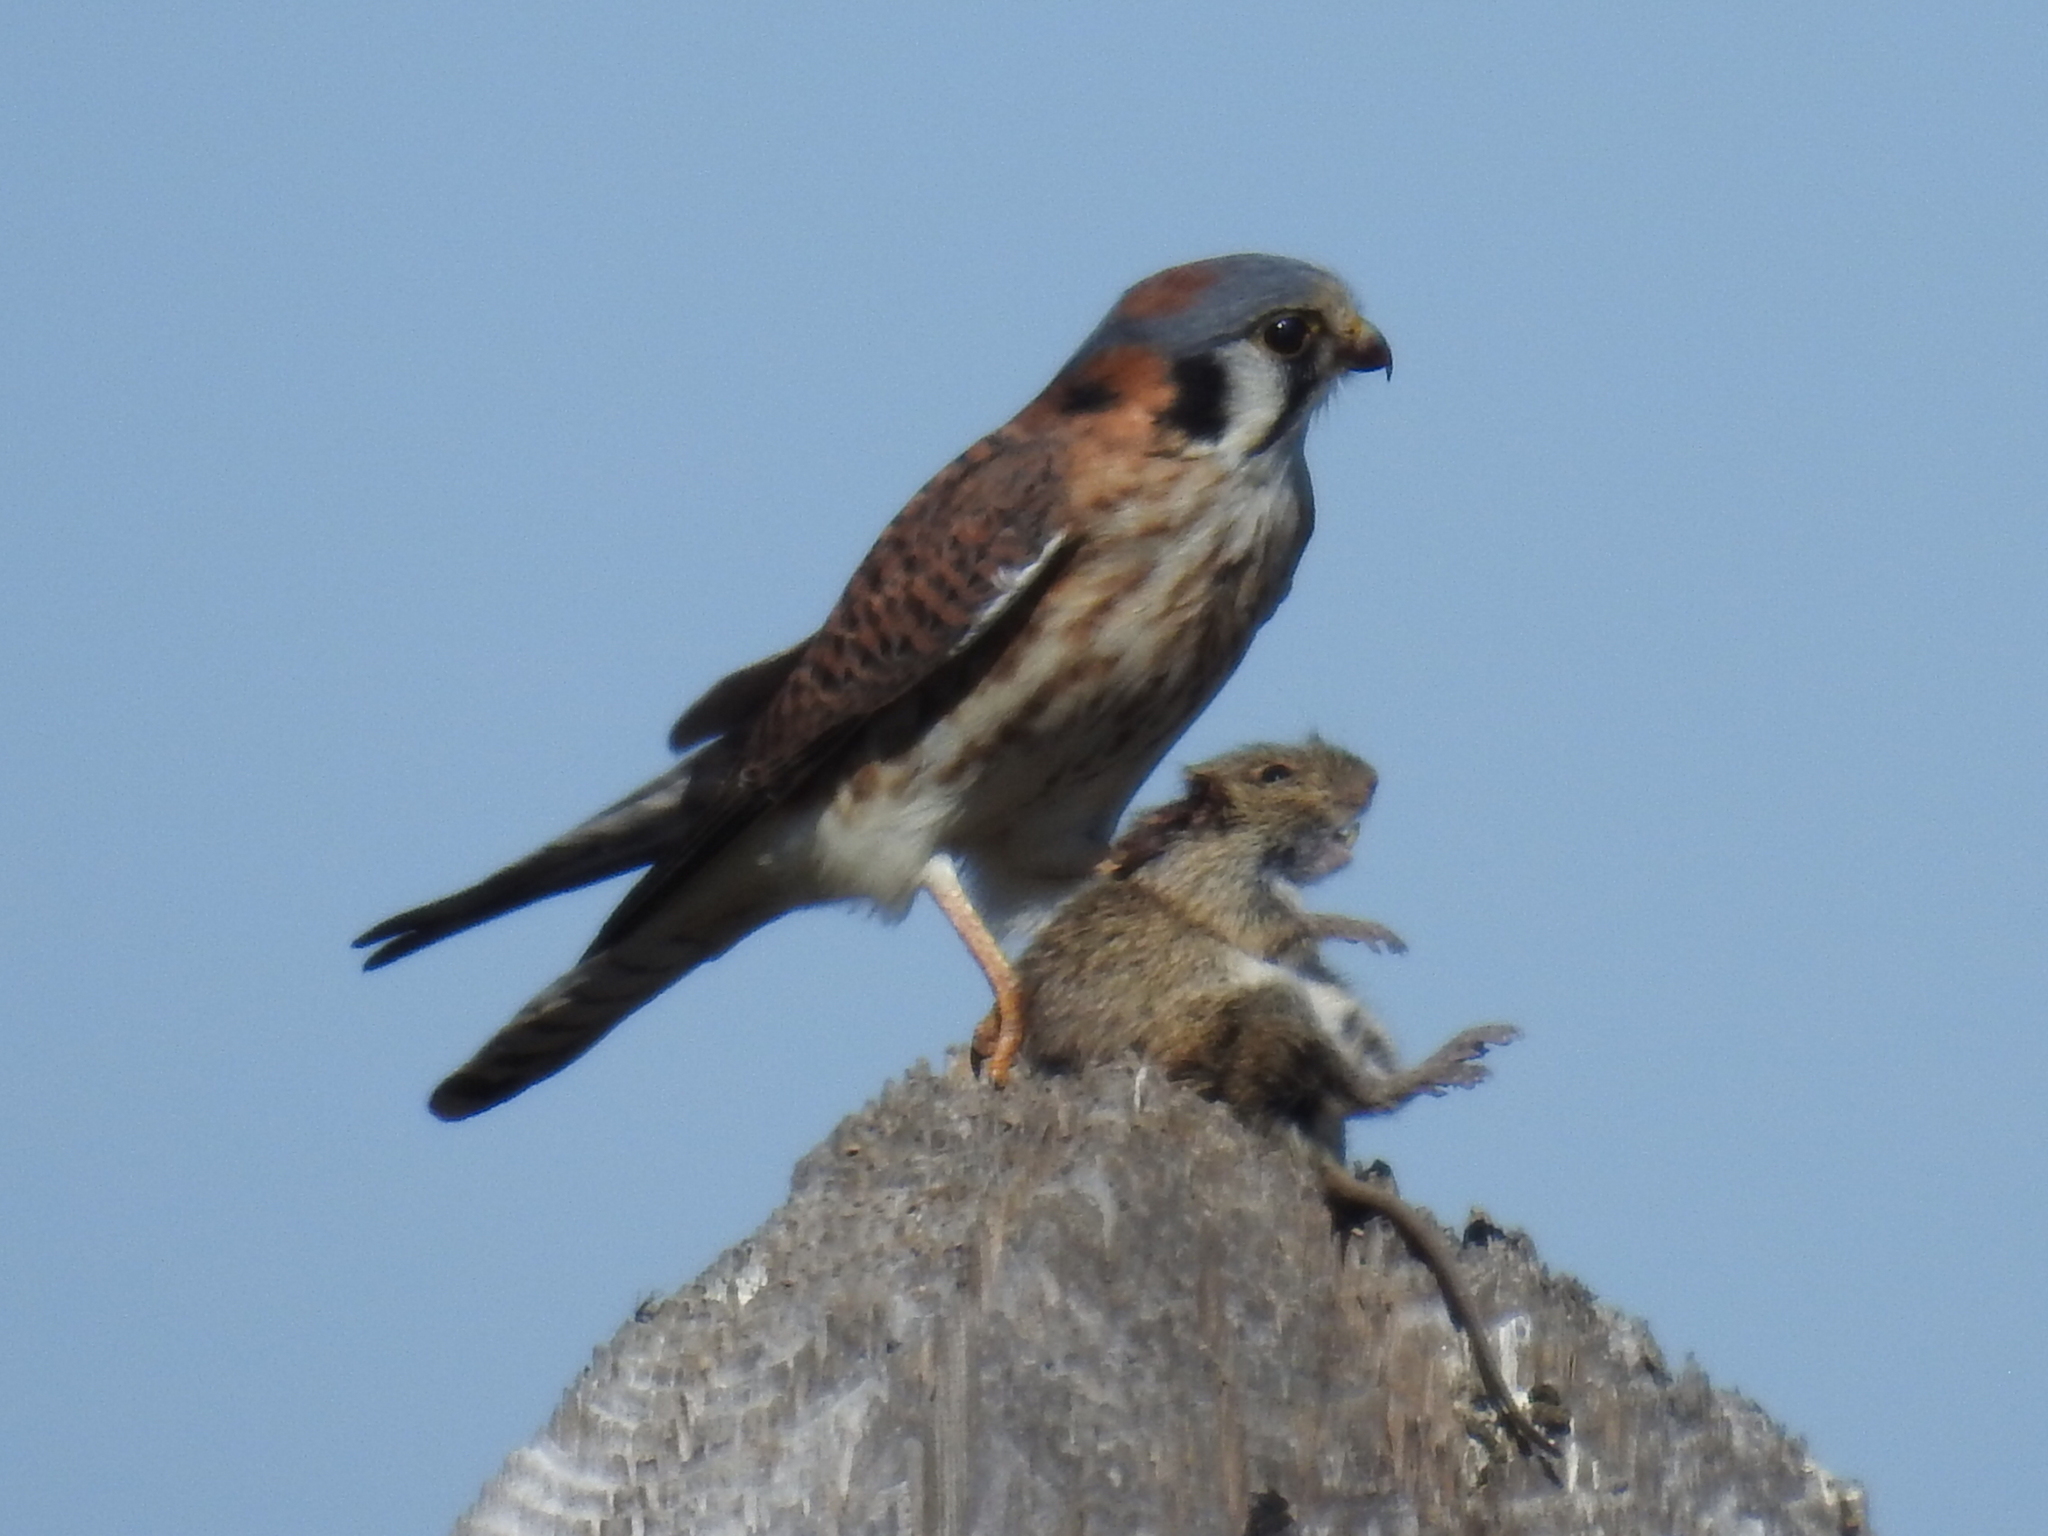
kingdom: Animalia
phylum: Chordata
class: Aves
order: Falconiformes
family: Falconidae
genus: Falco
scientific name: Falco sparverius
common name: American kestrel
